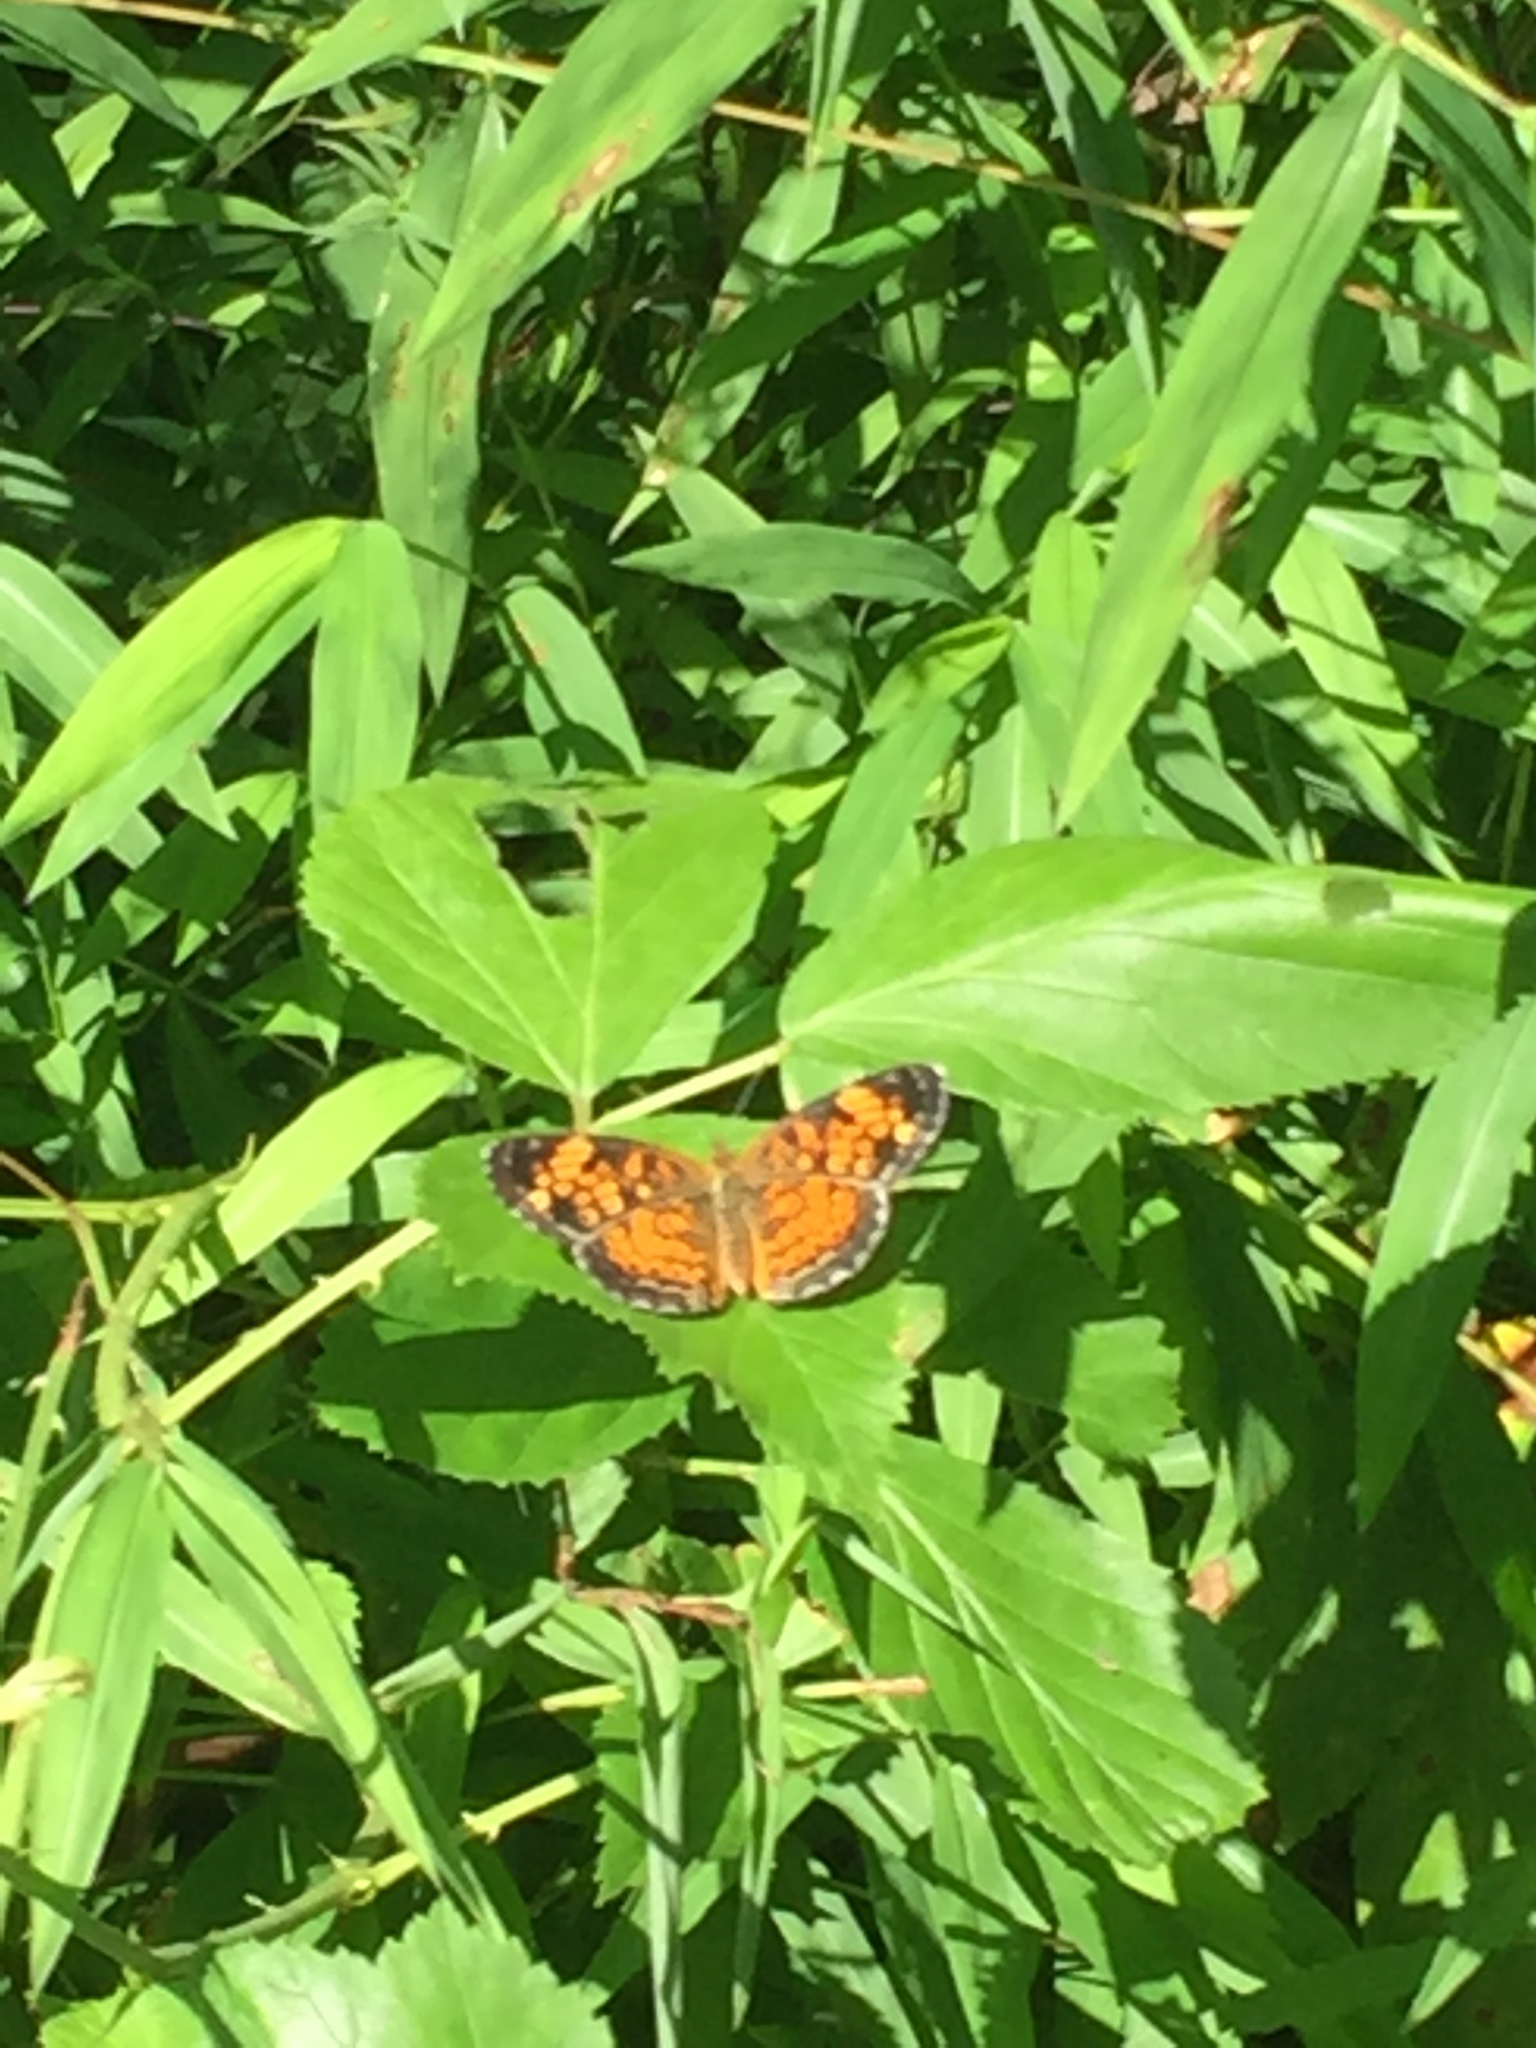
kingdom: Animalia
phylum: Arthropoda
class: Insecta
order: Lepidoptera
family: Nymphalidae
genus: Phyciodes
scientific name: Phyciodes tharos
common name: Pearl crescent
